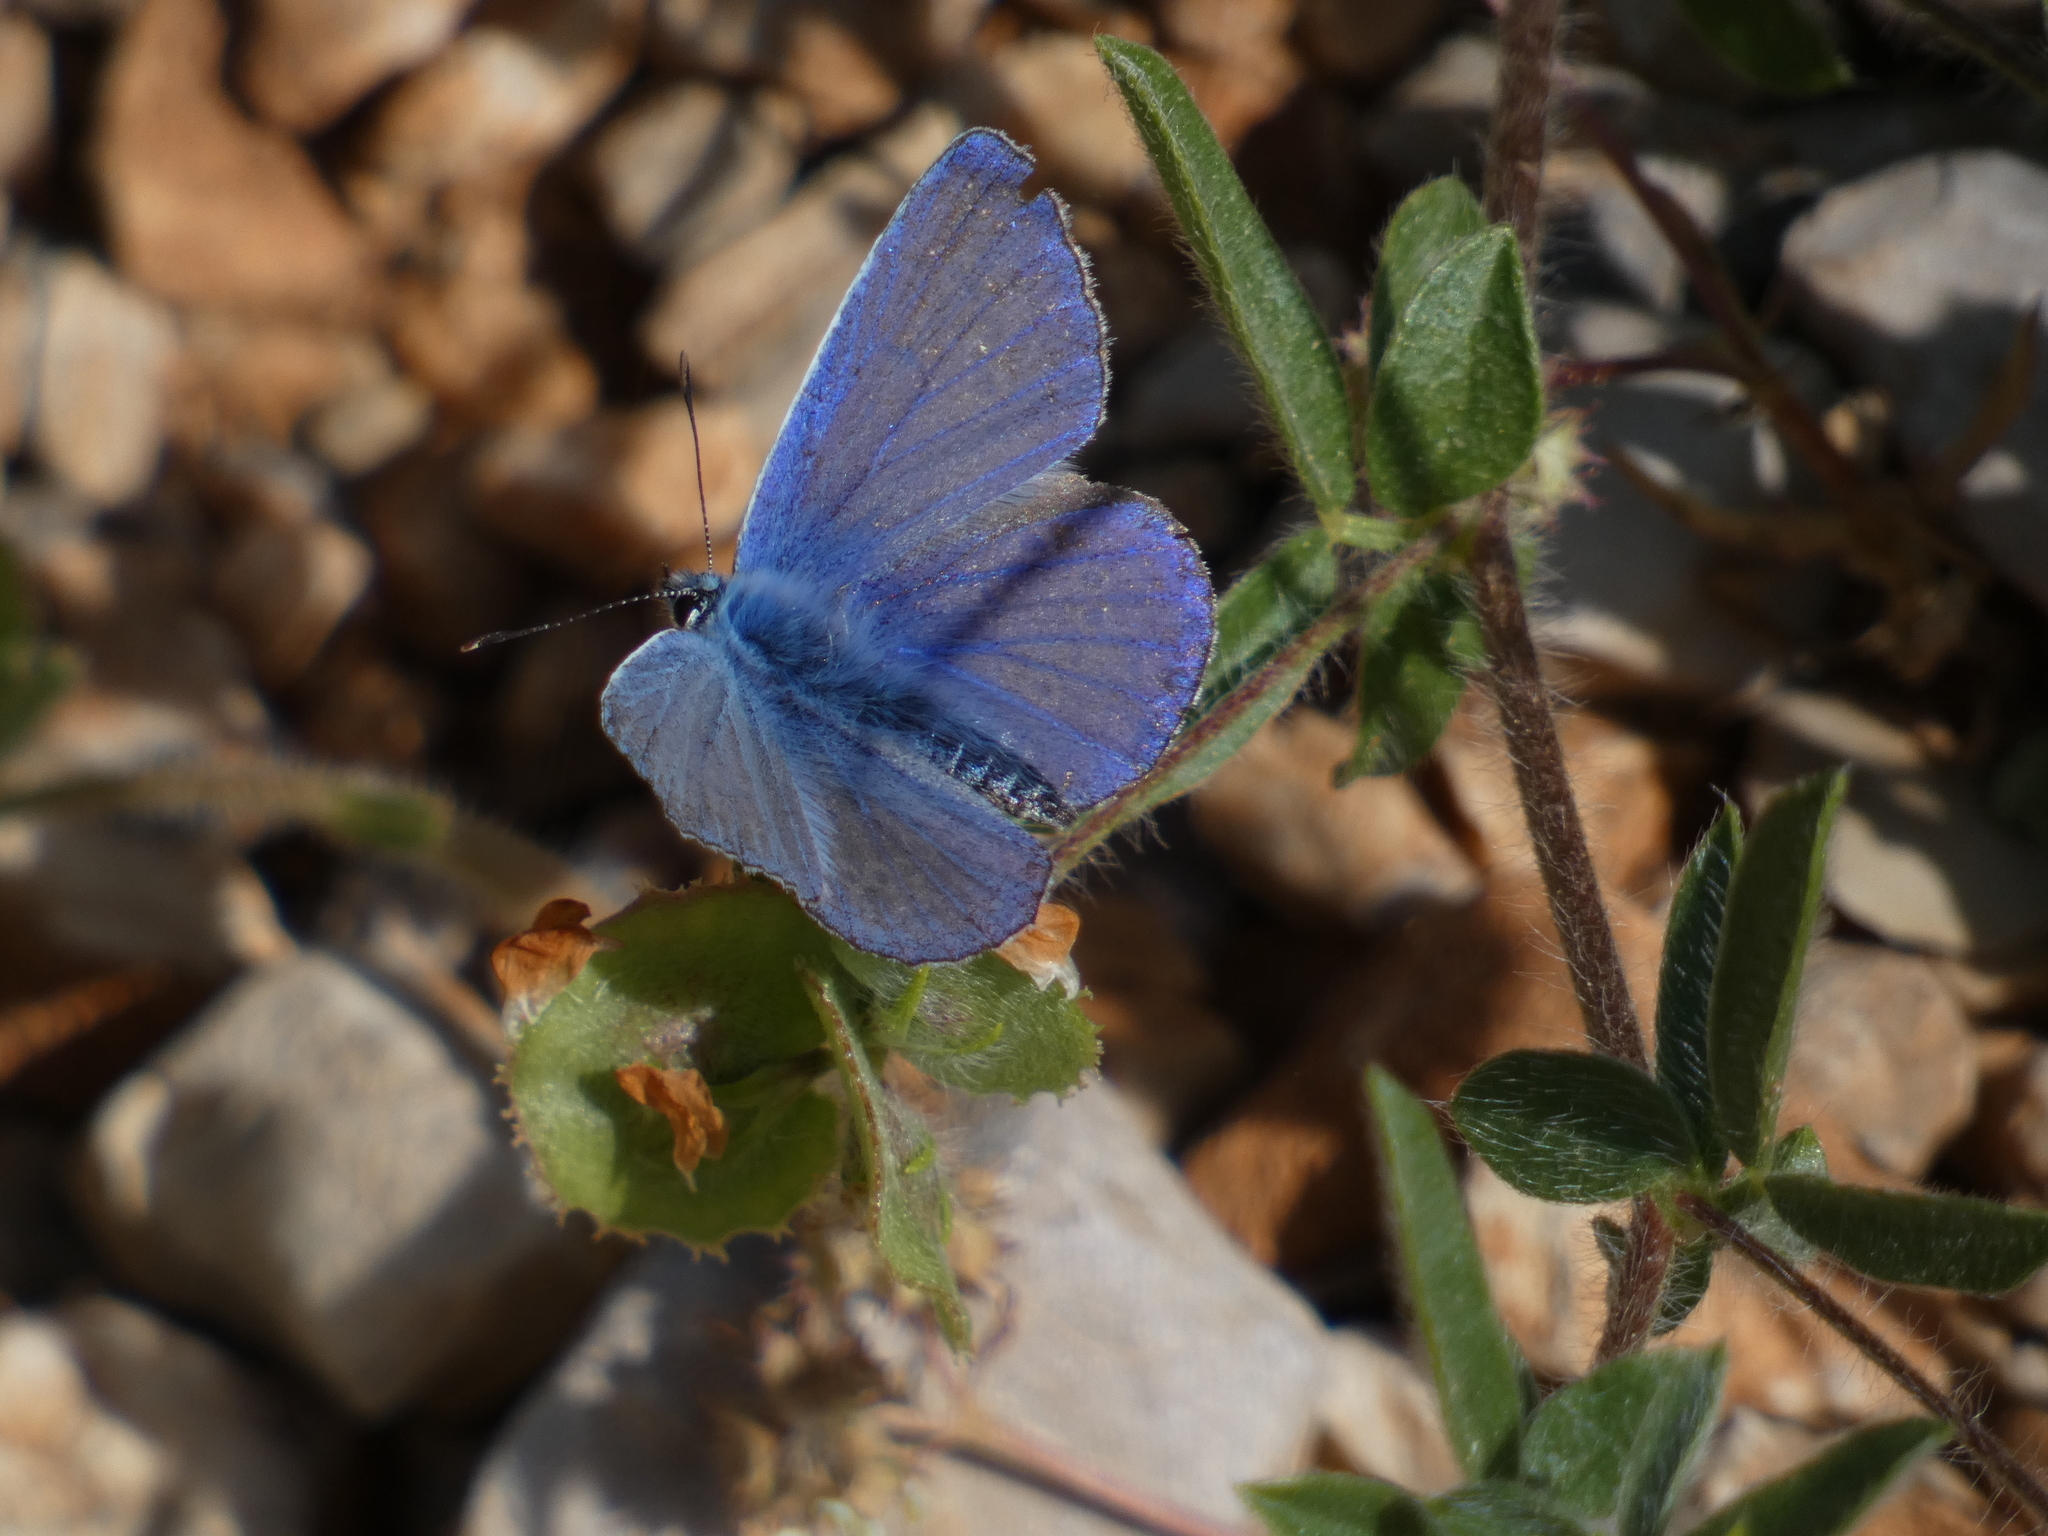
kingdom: Animalia
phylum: Arthropoda
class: Insecta
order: Lepidoptera
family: Lycaenidae
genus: Polyommatus
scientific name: Polyommatus icarus
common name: Common blue
